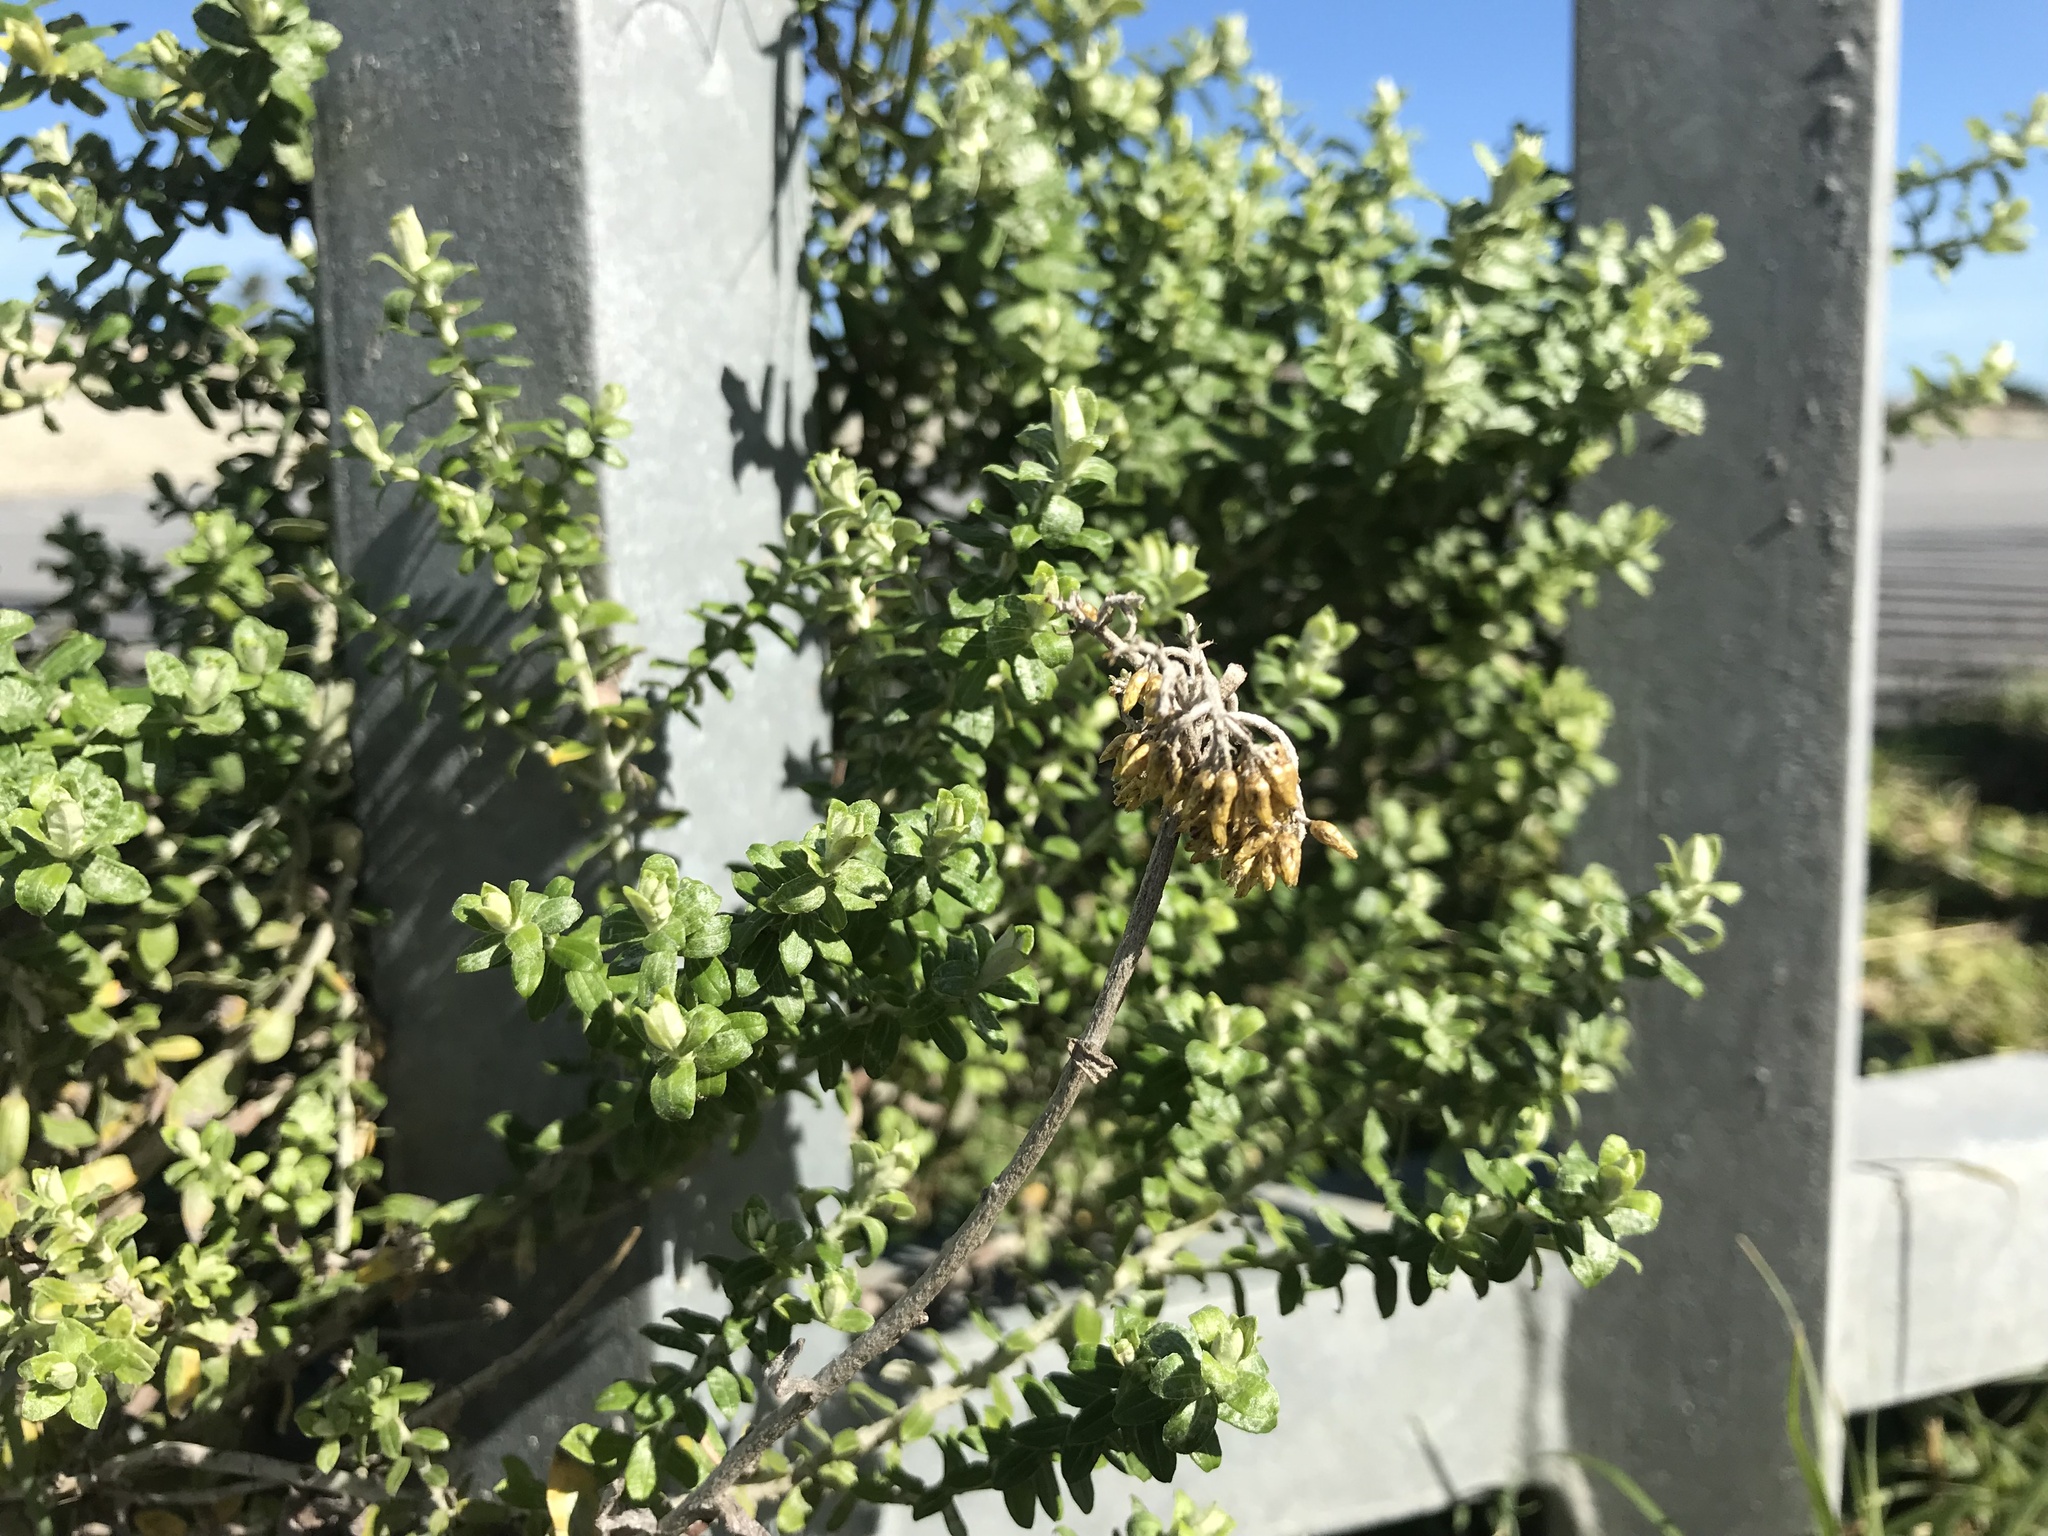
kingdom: Plantae
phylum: Tracheophyta
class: Magnoliopsida
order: Asterales
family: Asteraceae
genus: Helichrysum
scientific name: Helichrysum cymosum
